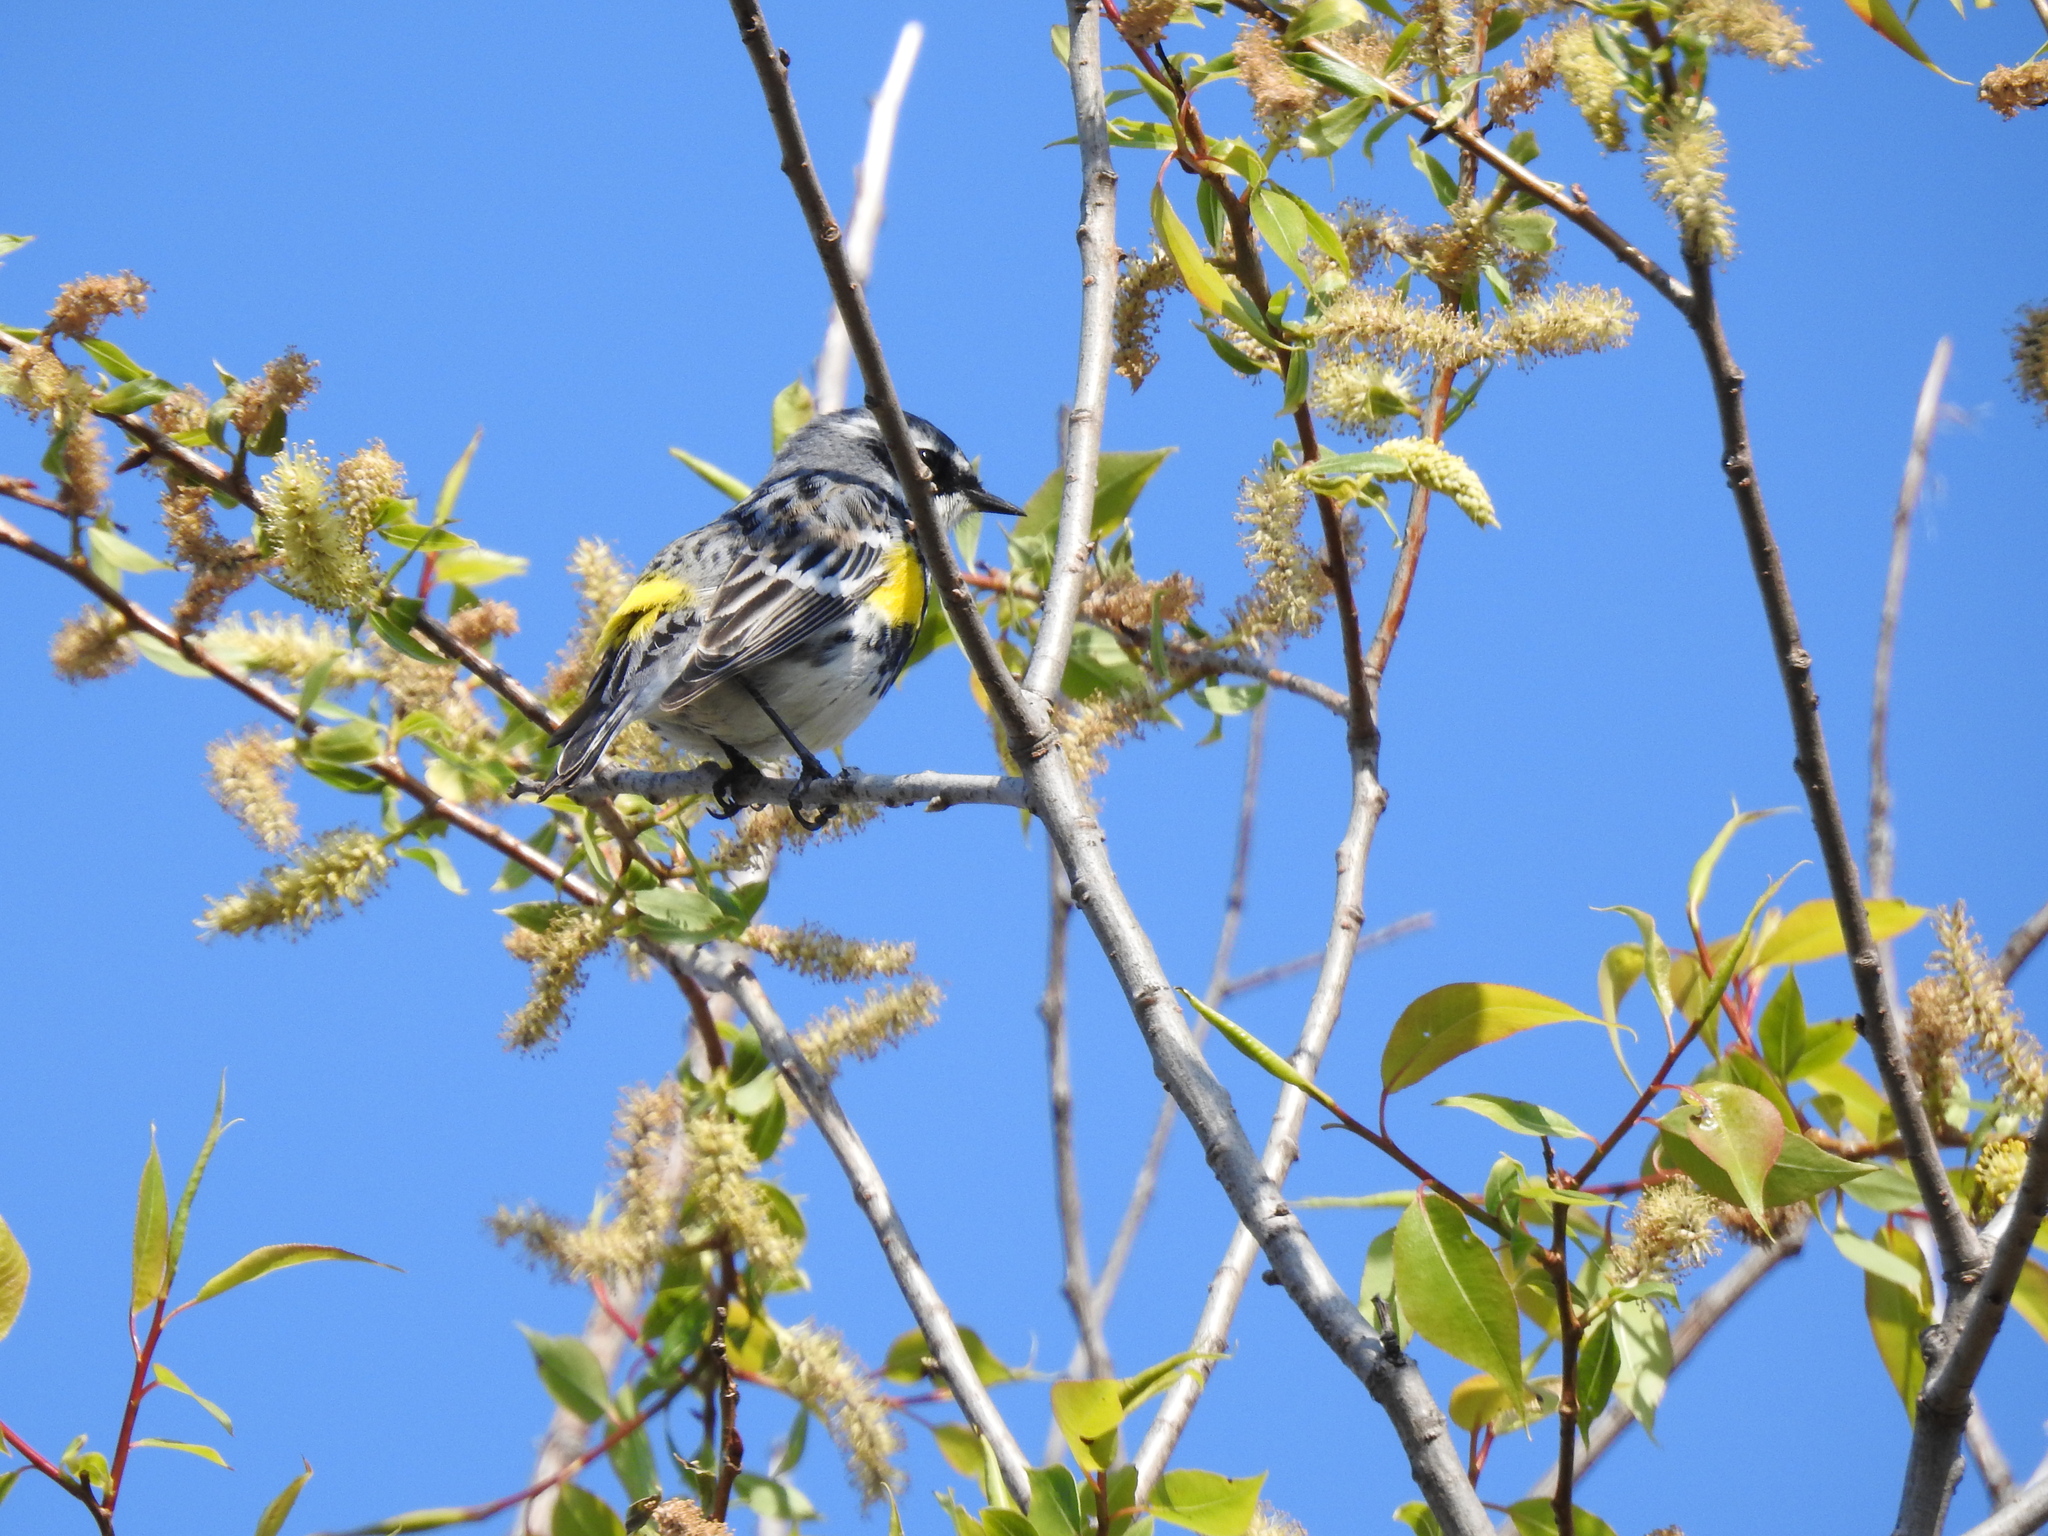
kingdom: Animalia
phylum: Chordata
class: Aves
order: Passeriformes
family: Parulidae
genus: Setophaga
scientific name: Setophaga coronata
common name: Myrtle warbler
